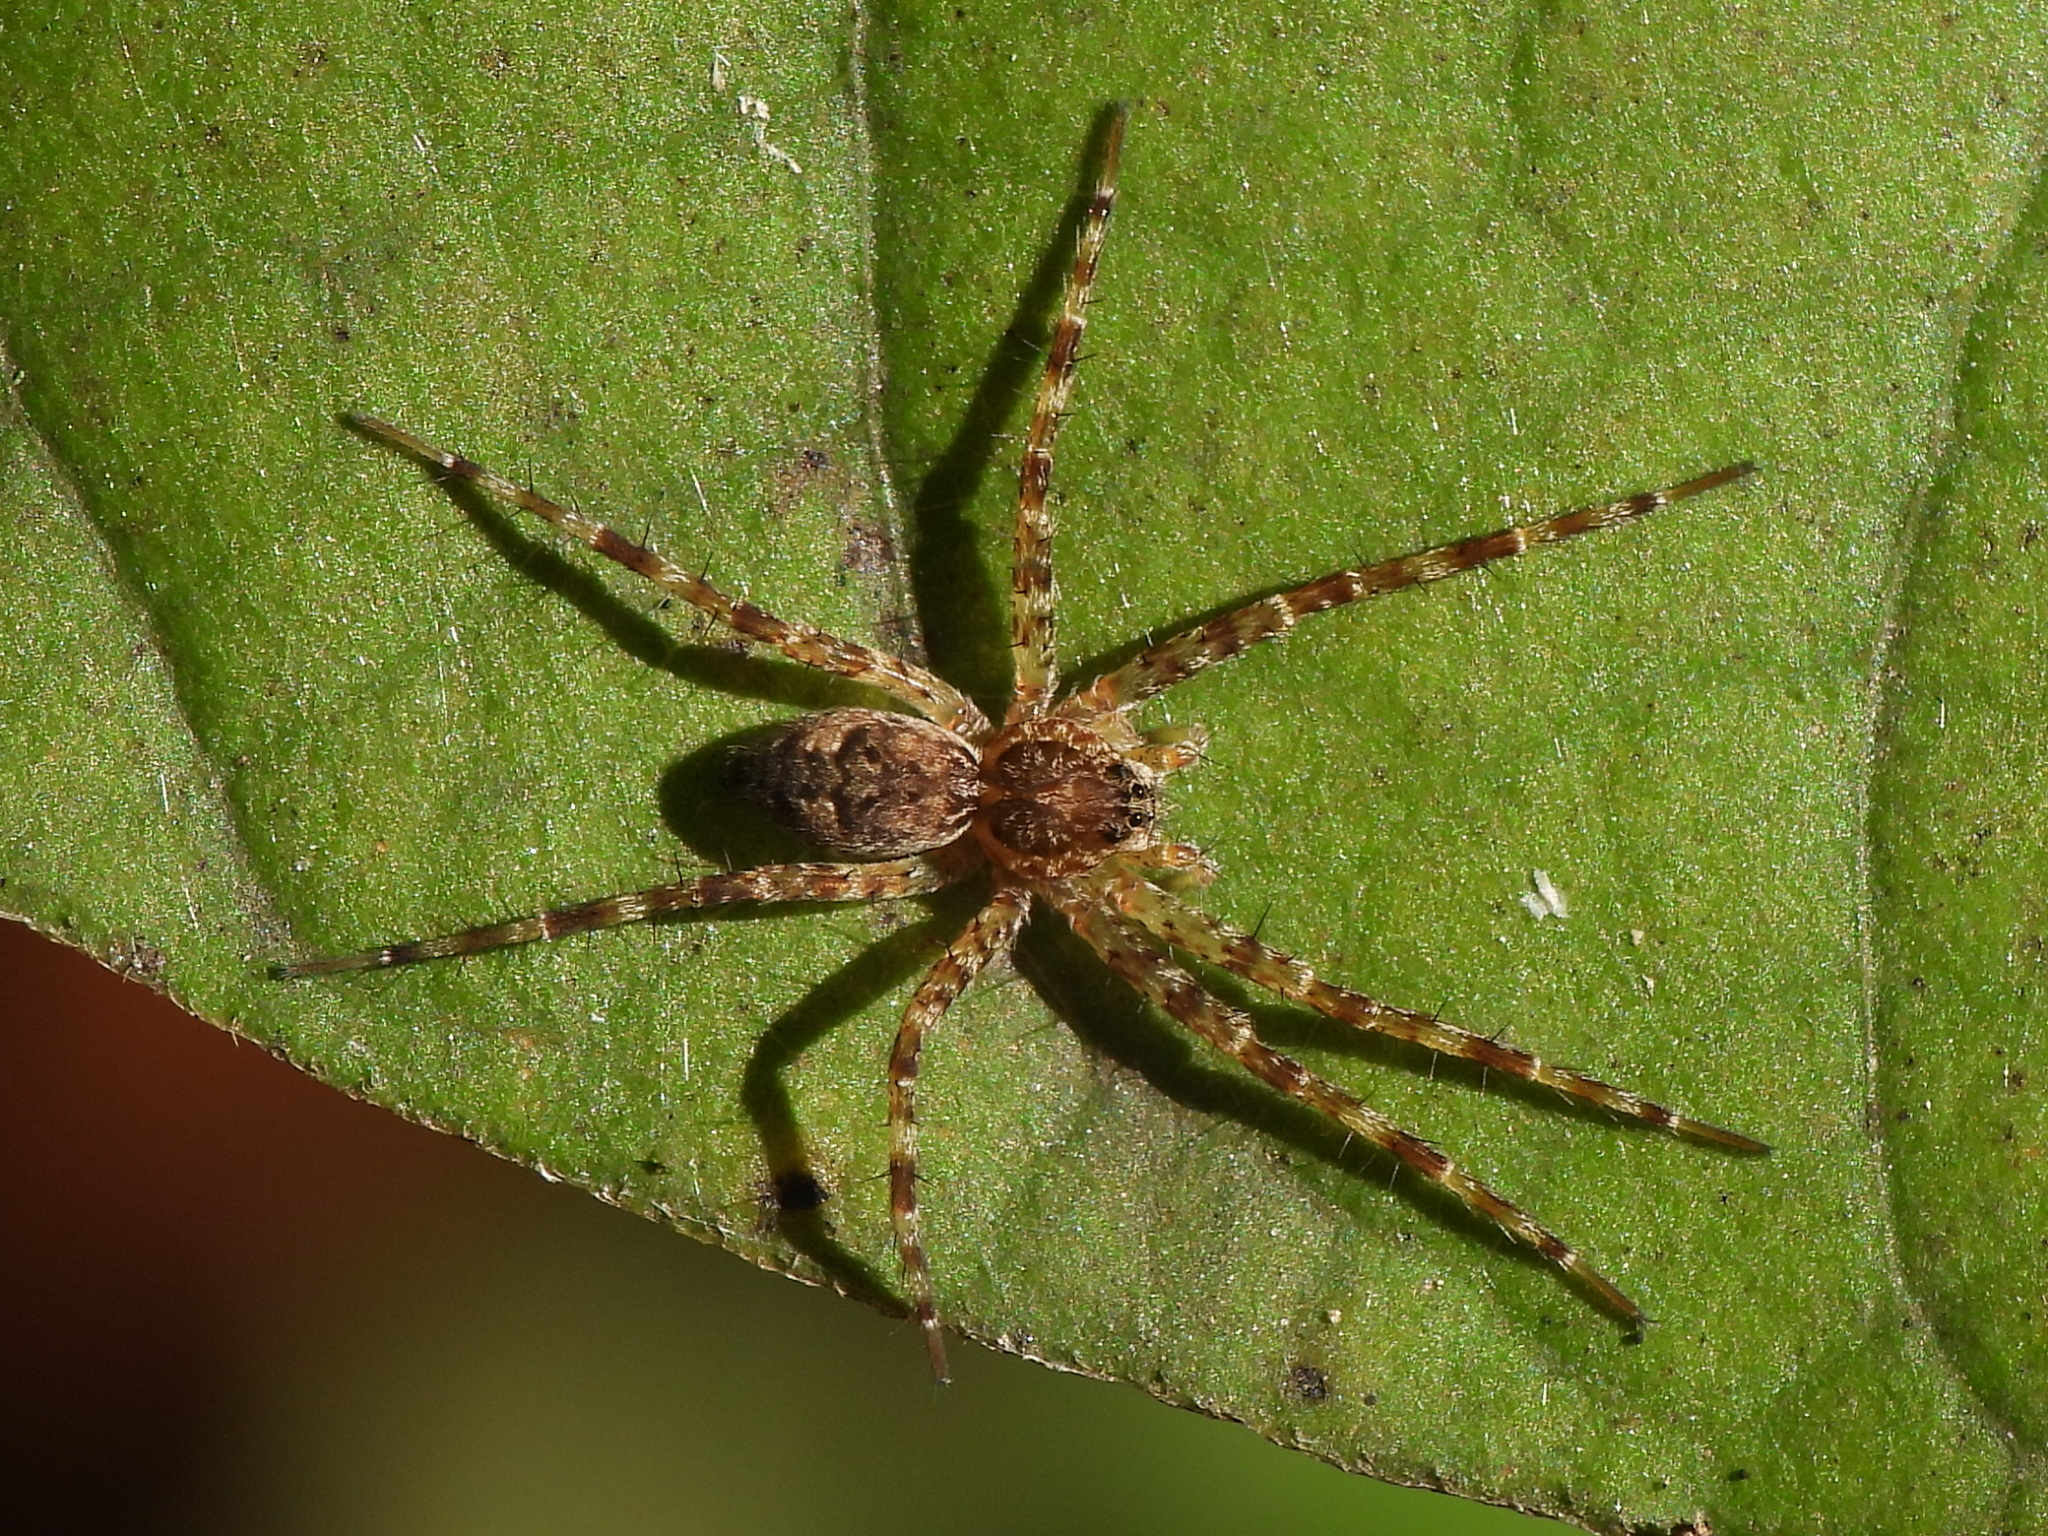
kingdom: Animalia
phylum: Arthropoda
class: Arachnida
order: Araneae
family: Pisauridae
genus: Dolomedes
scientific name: Dolomedes tenebrosus
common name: Dark fishing spider
